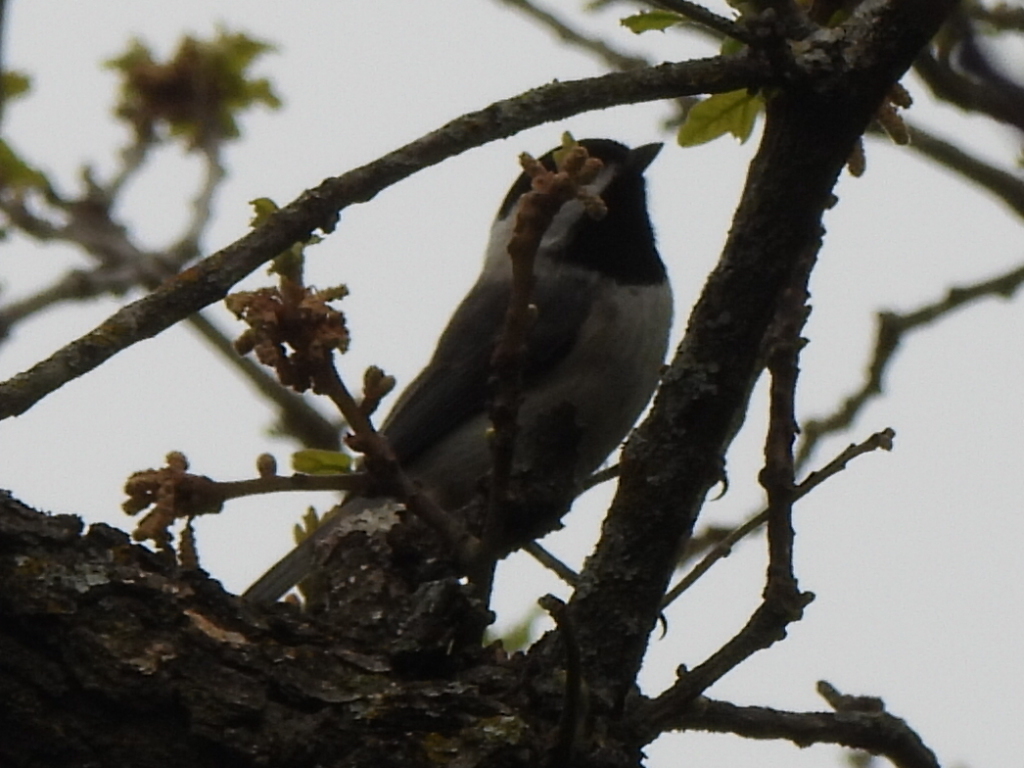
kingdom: Animalia
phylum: Chordata
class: Aves
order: Passeriformes
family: Paridae
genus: Poecile
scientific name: Poecile carolinensis
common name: Carolina chickadee
